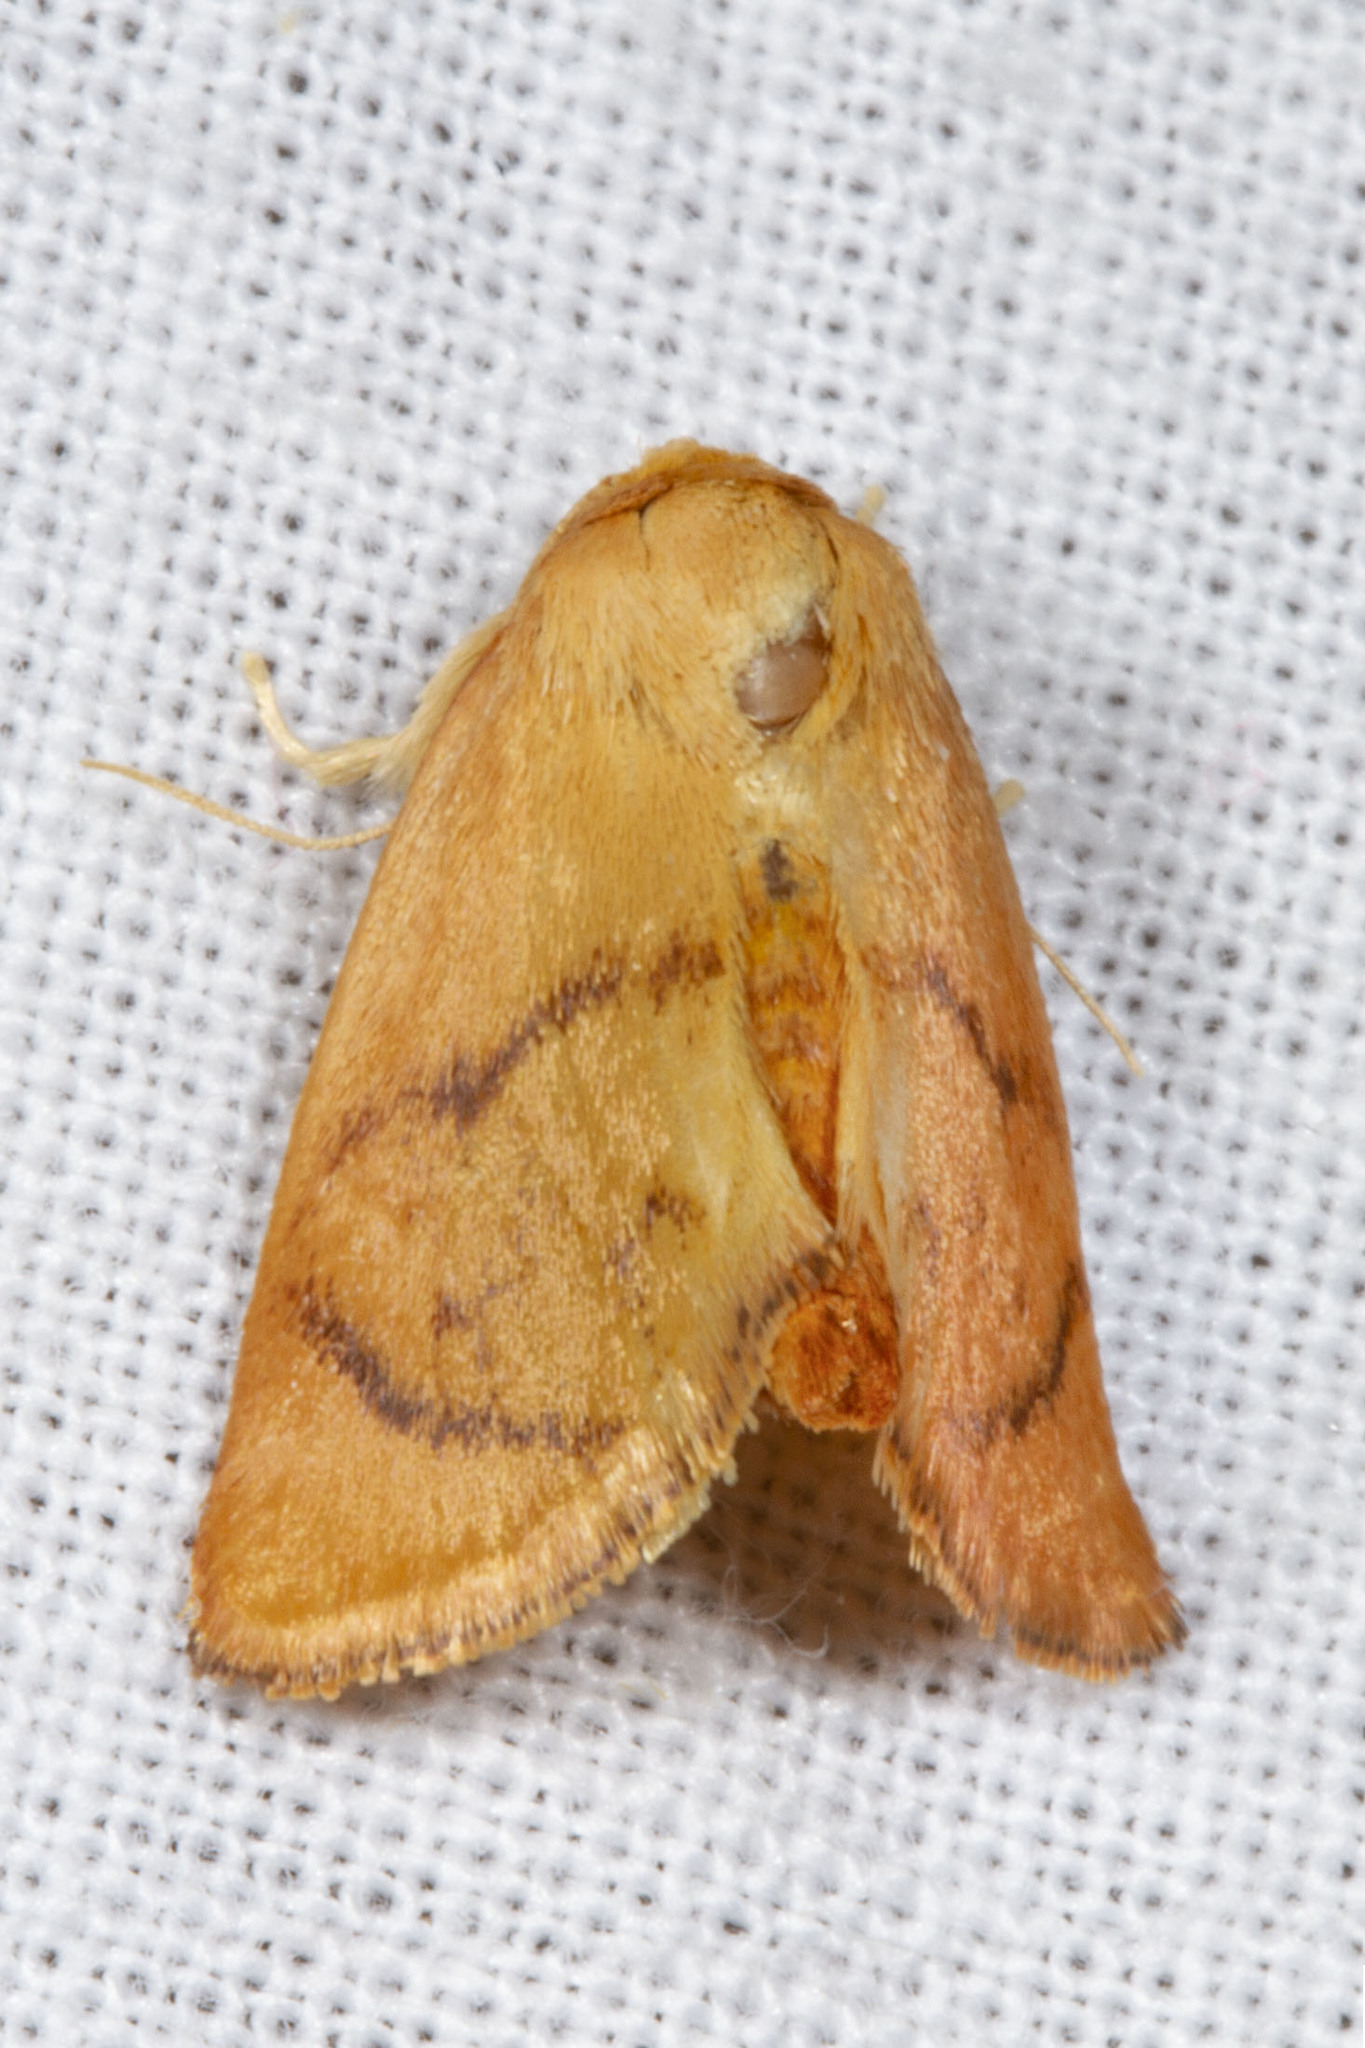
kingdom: Animalia
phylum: Arthropoda
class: Insecta
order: Lepidoptera
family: Limacodidae
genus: Tortricidia
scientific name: Tortricidia flexuosa
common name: Abbreviated button slug moth
